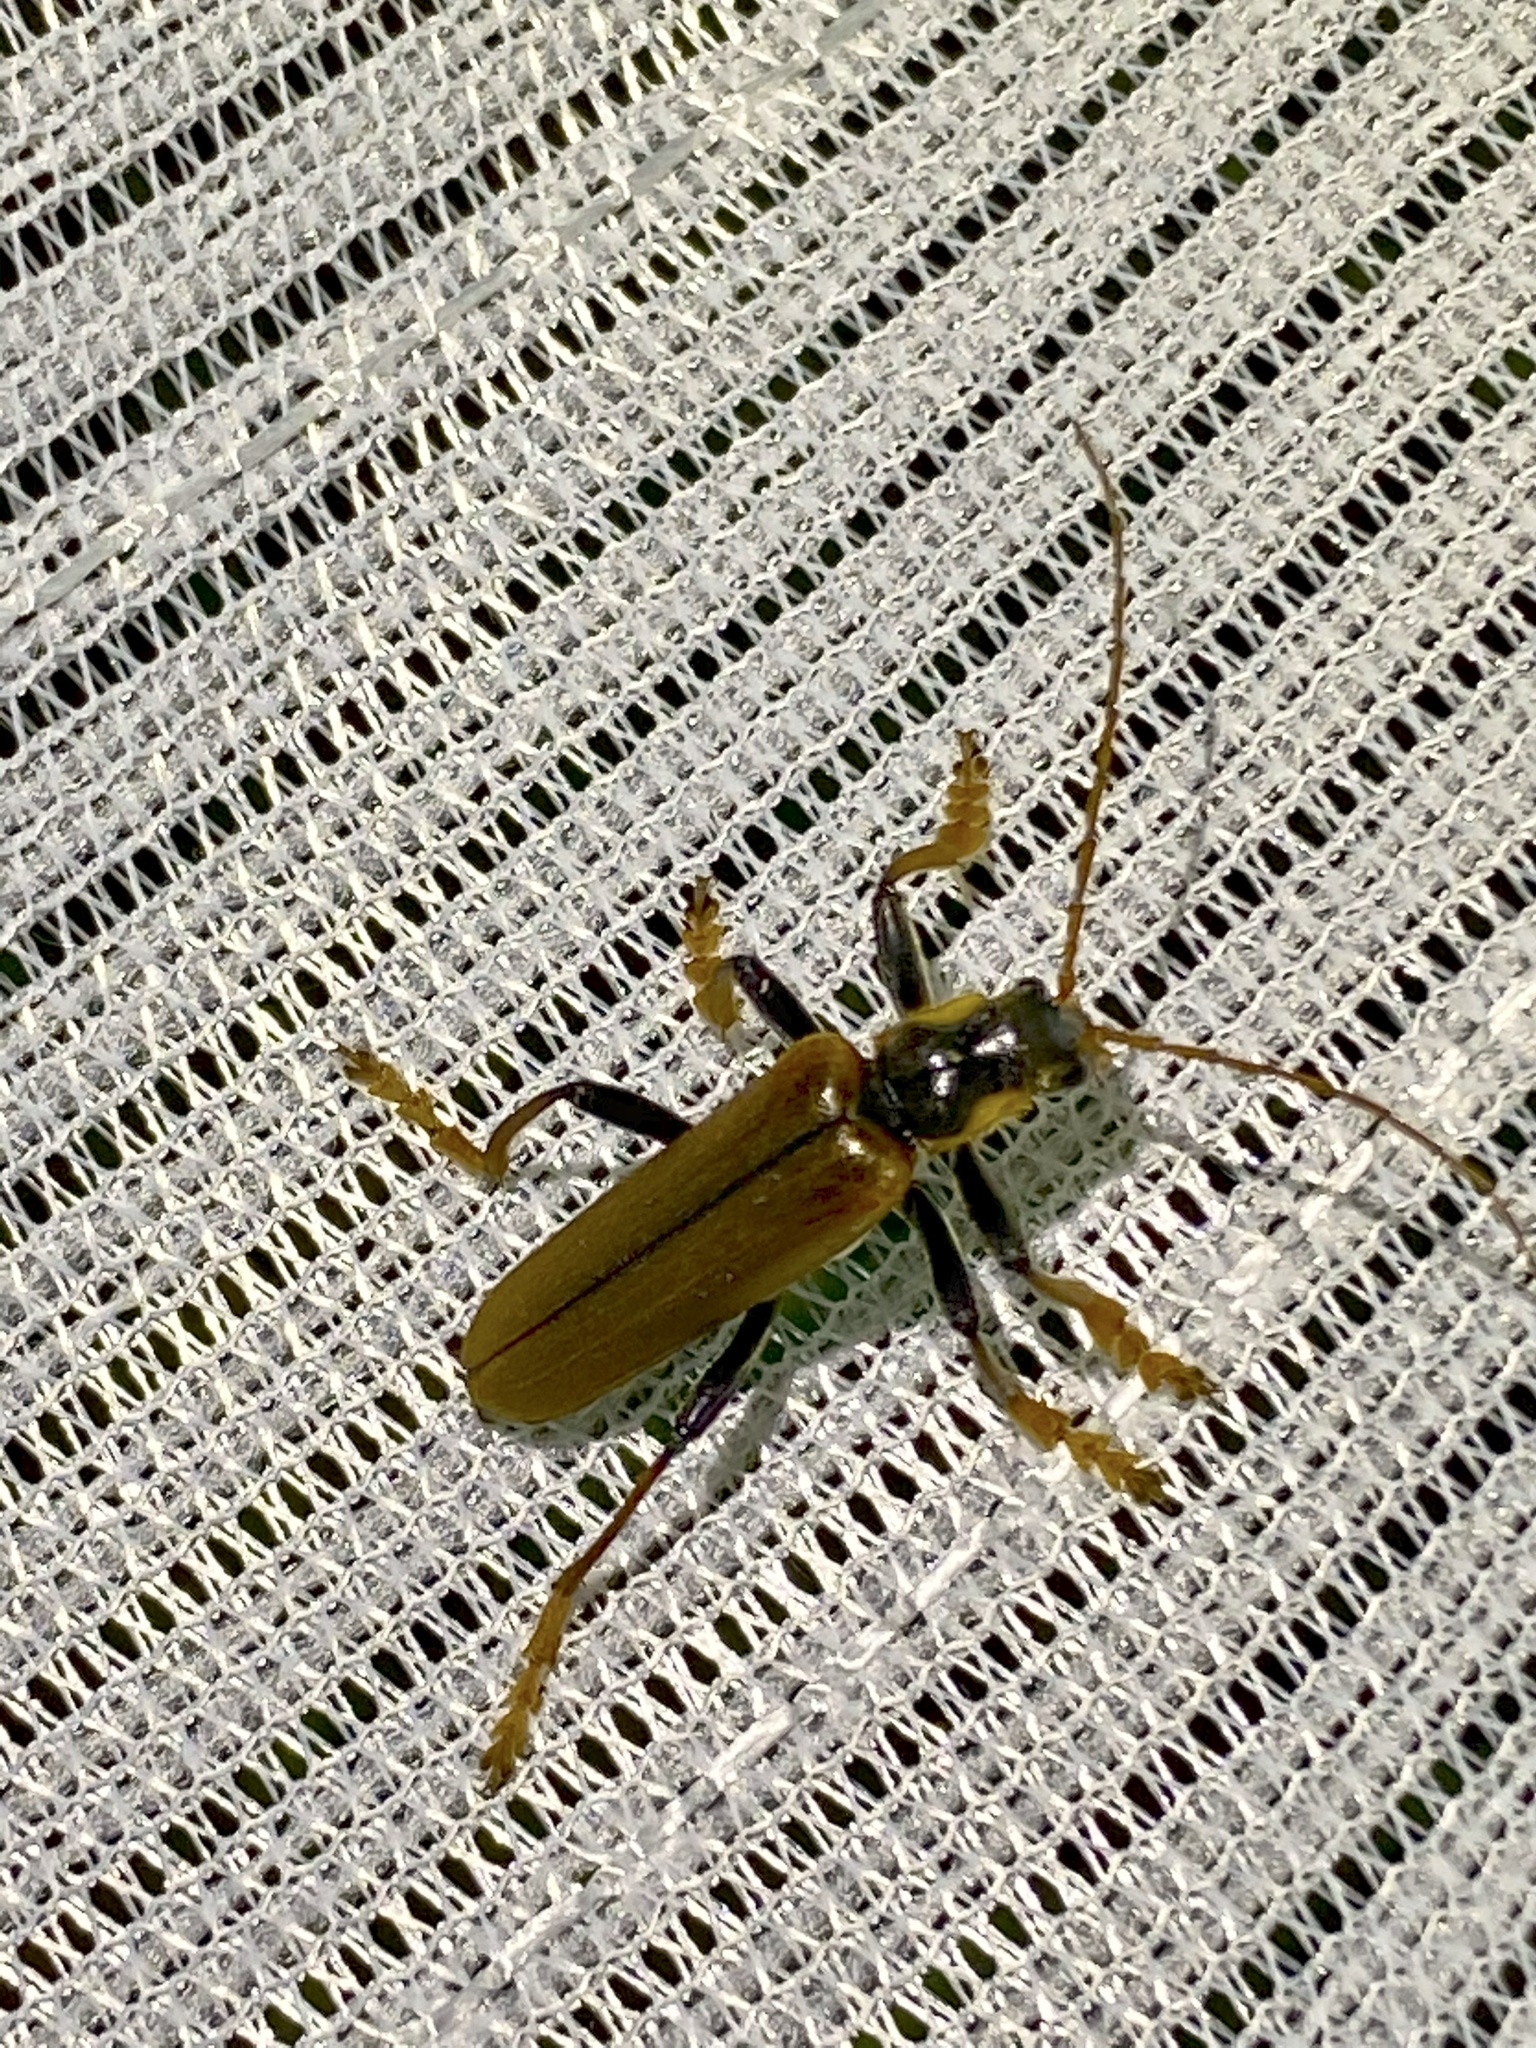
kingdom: Animalia
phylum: Arthropoda
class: Insecta
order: Coleoptera
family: Cantharidae
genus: Lycocerus
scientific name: Lycocerus suturellus
